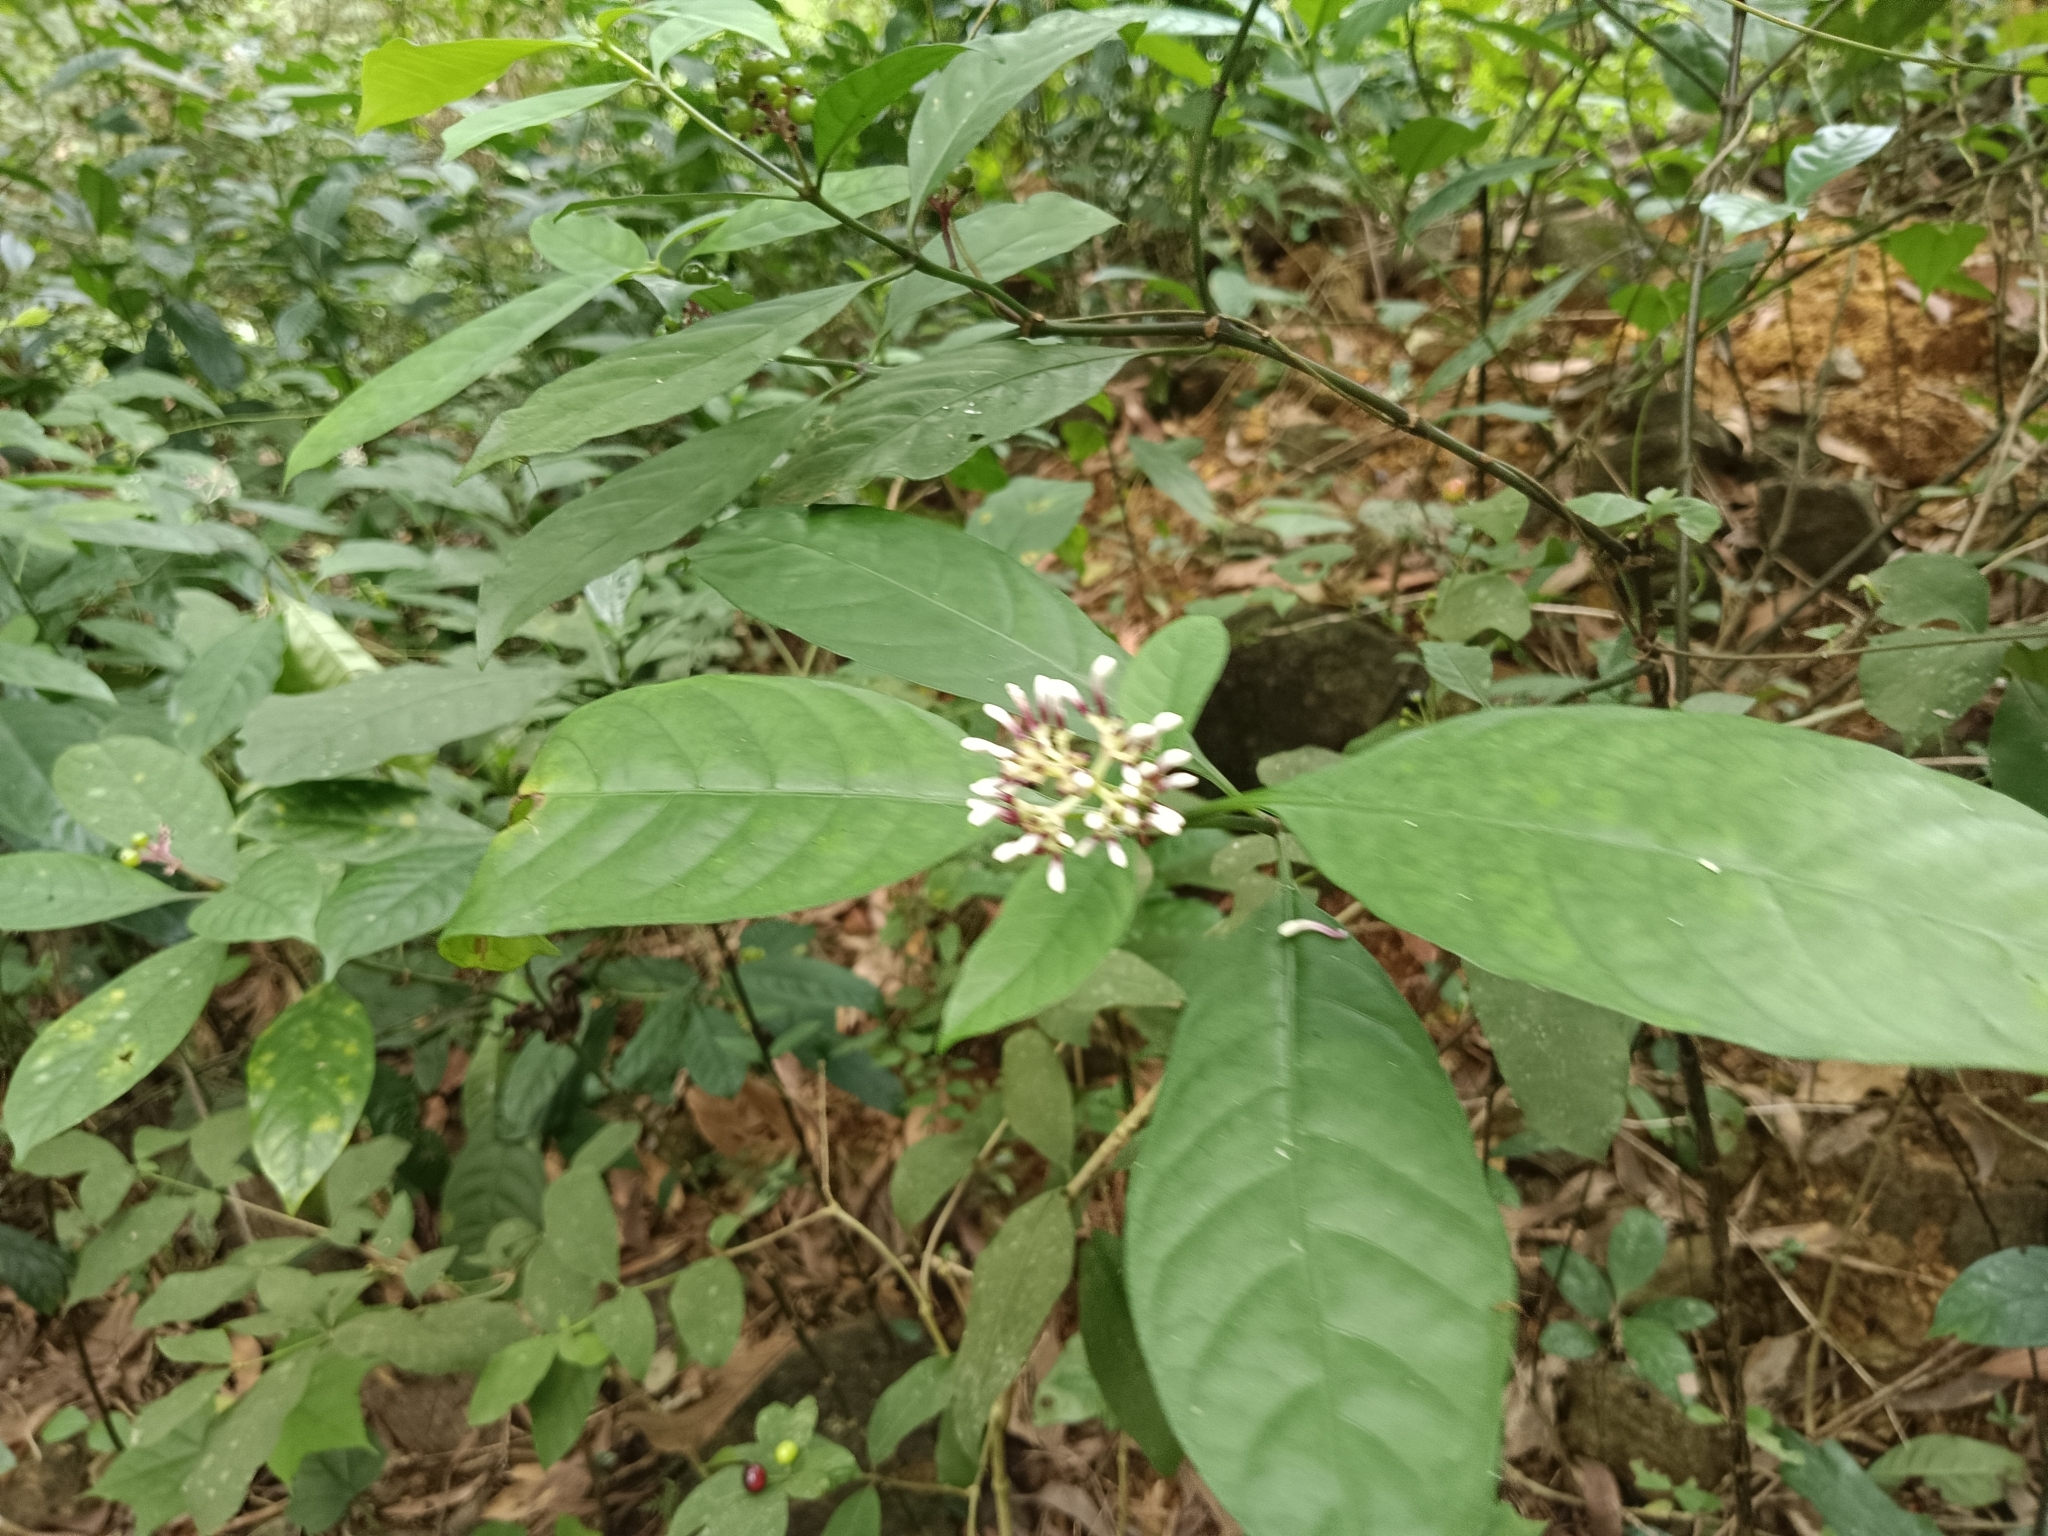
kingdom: Plantae
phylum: Tracheophyta
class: Magnoliopsida
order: Gentianales
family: Rubiaceae
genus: Chassalia
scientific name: Chassalia curviflora
